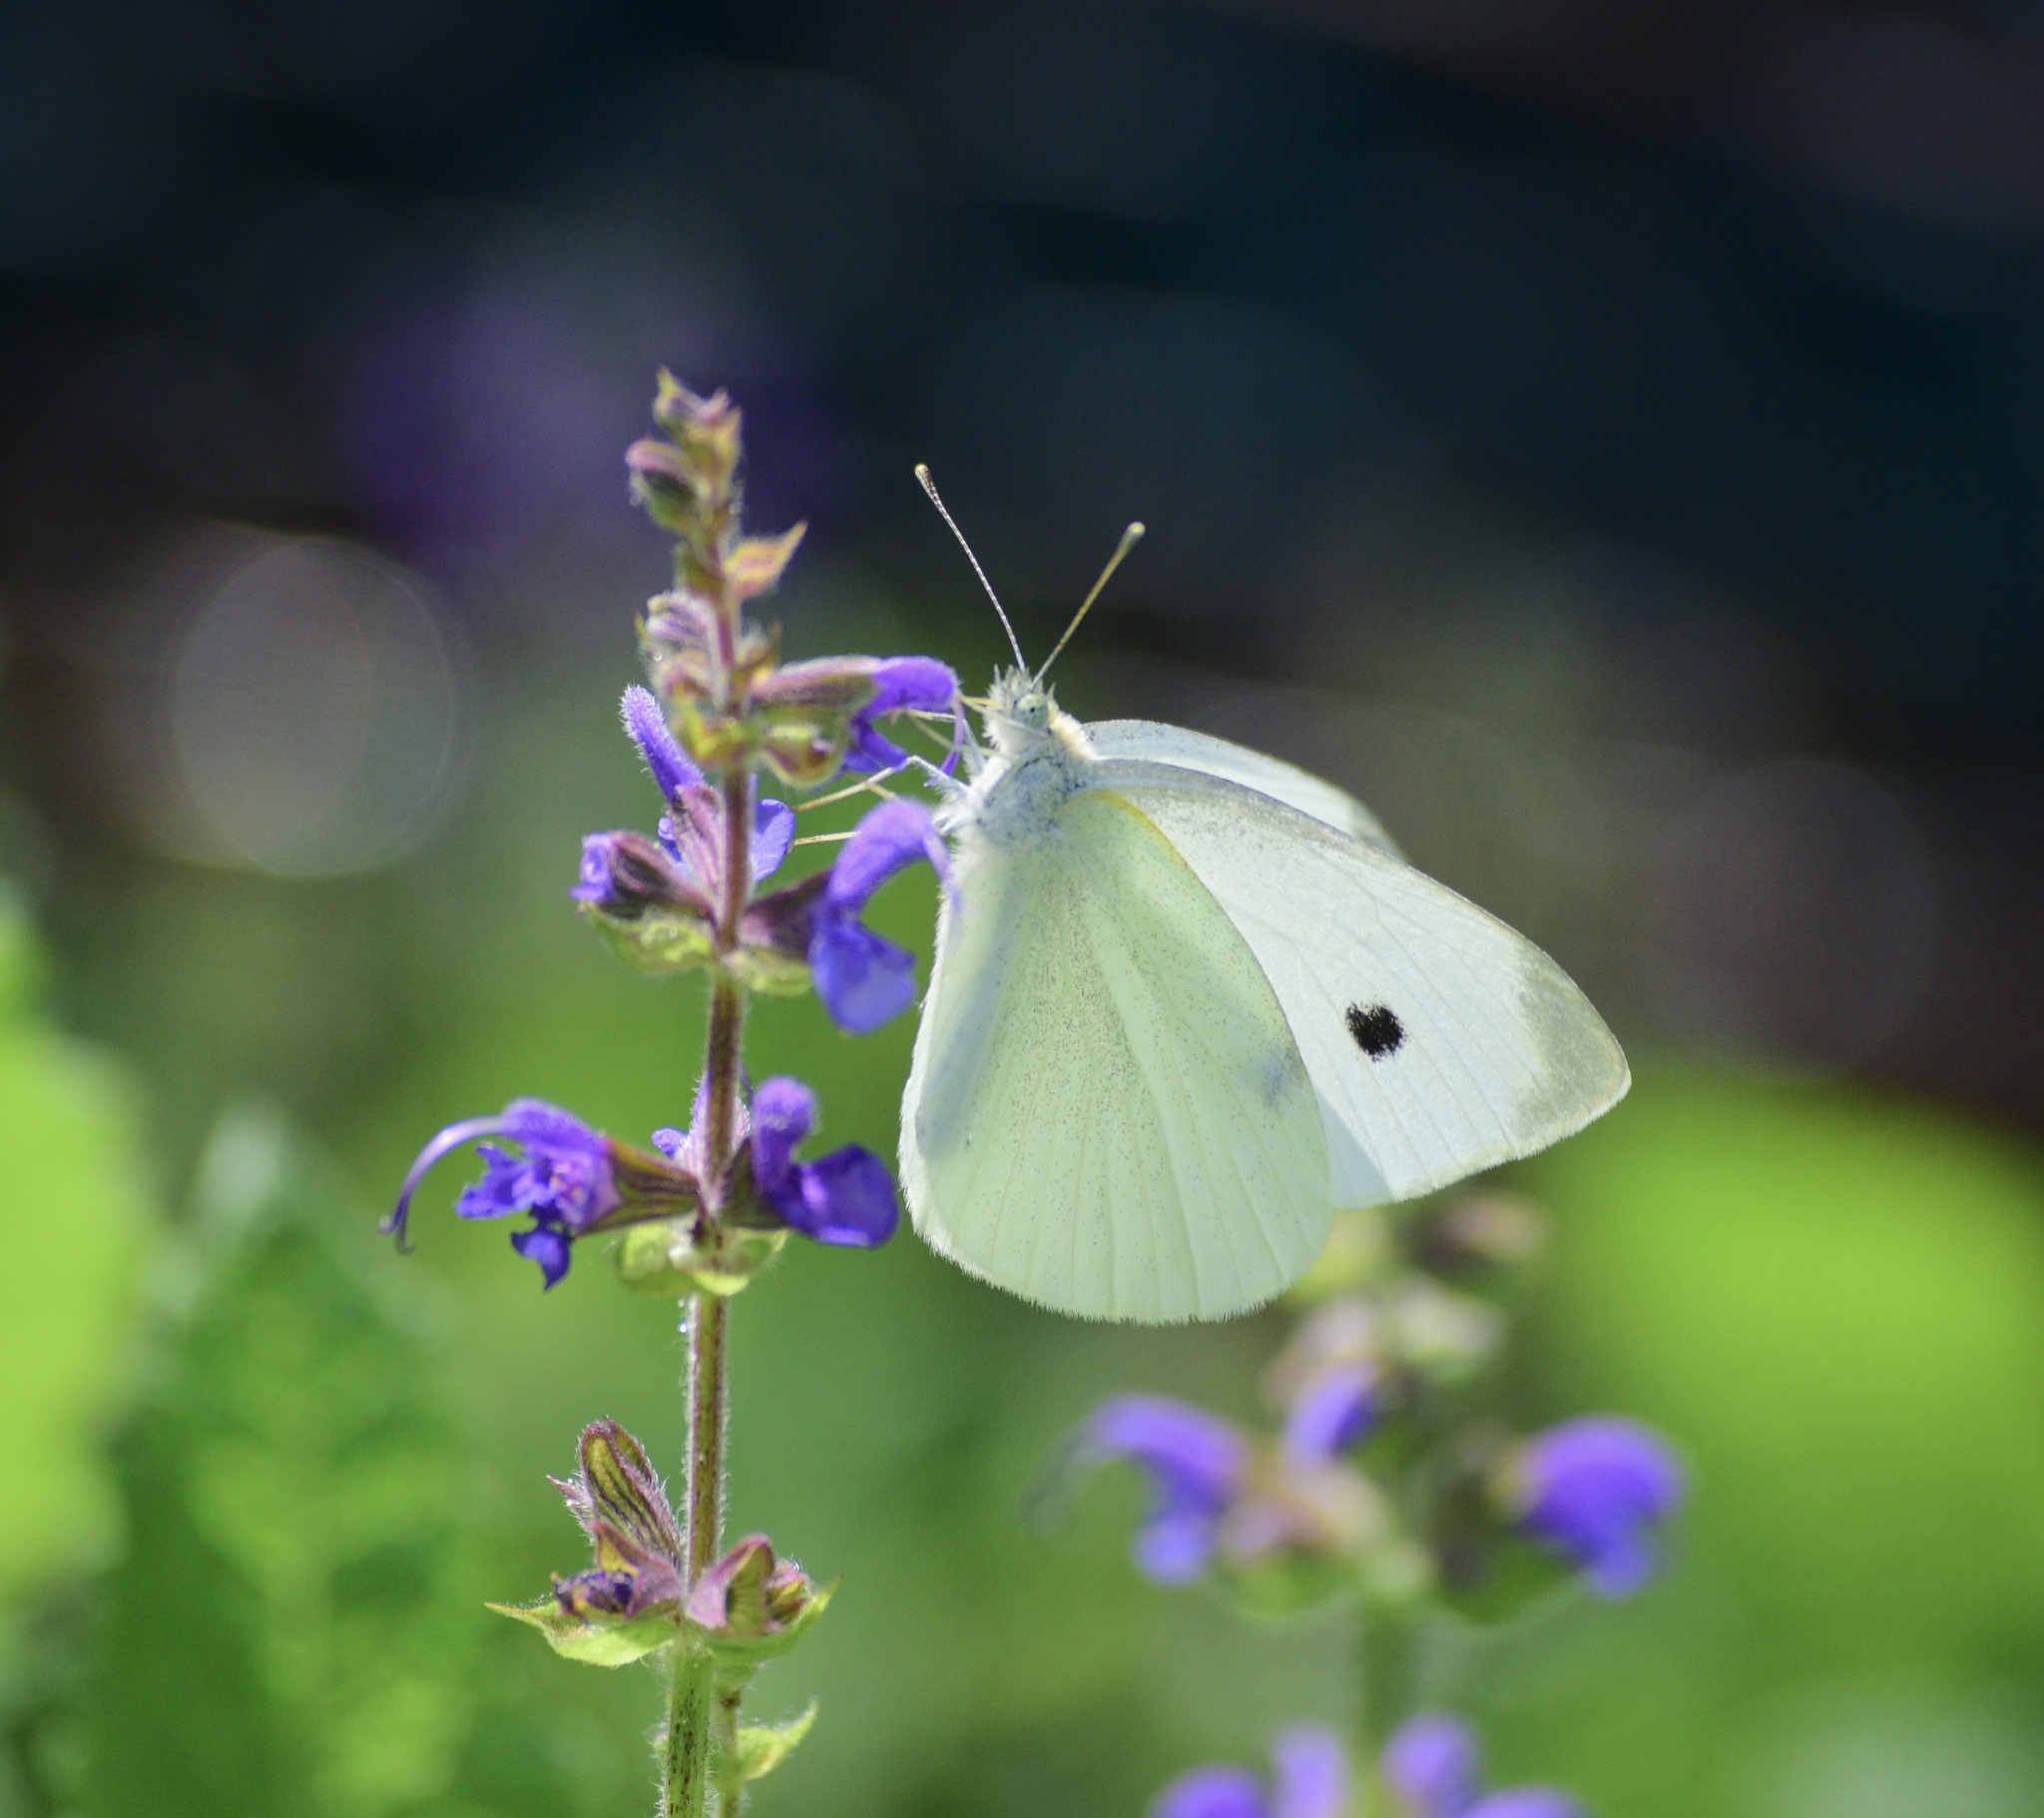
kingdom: Animalia
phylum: Arthropoda
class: Insecta
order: Lepidoptera
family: Pieridae
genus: Pieris
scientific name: Pieris rapae
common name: Small white
